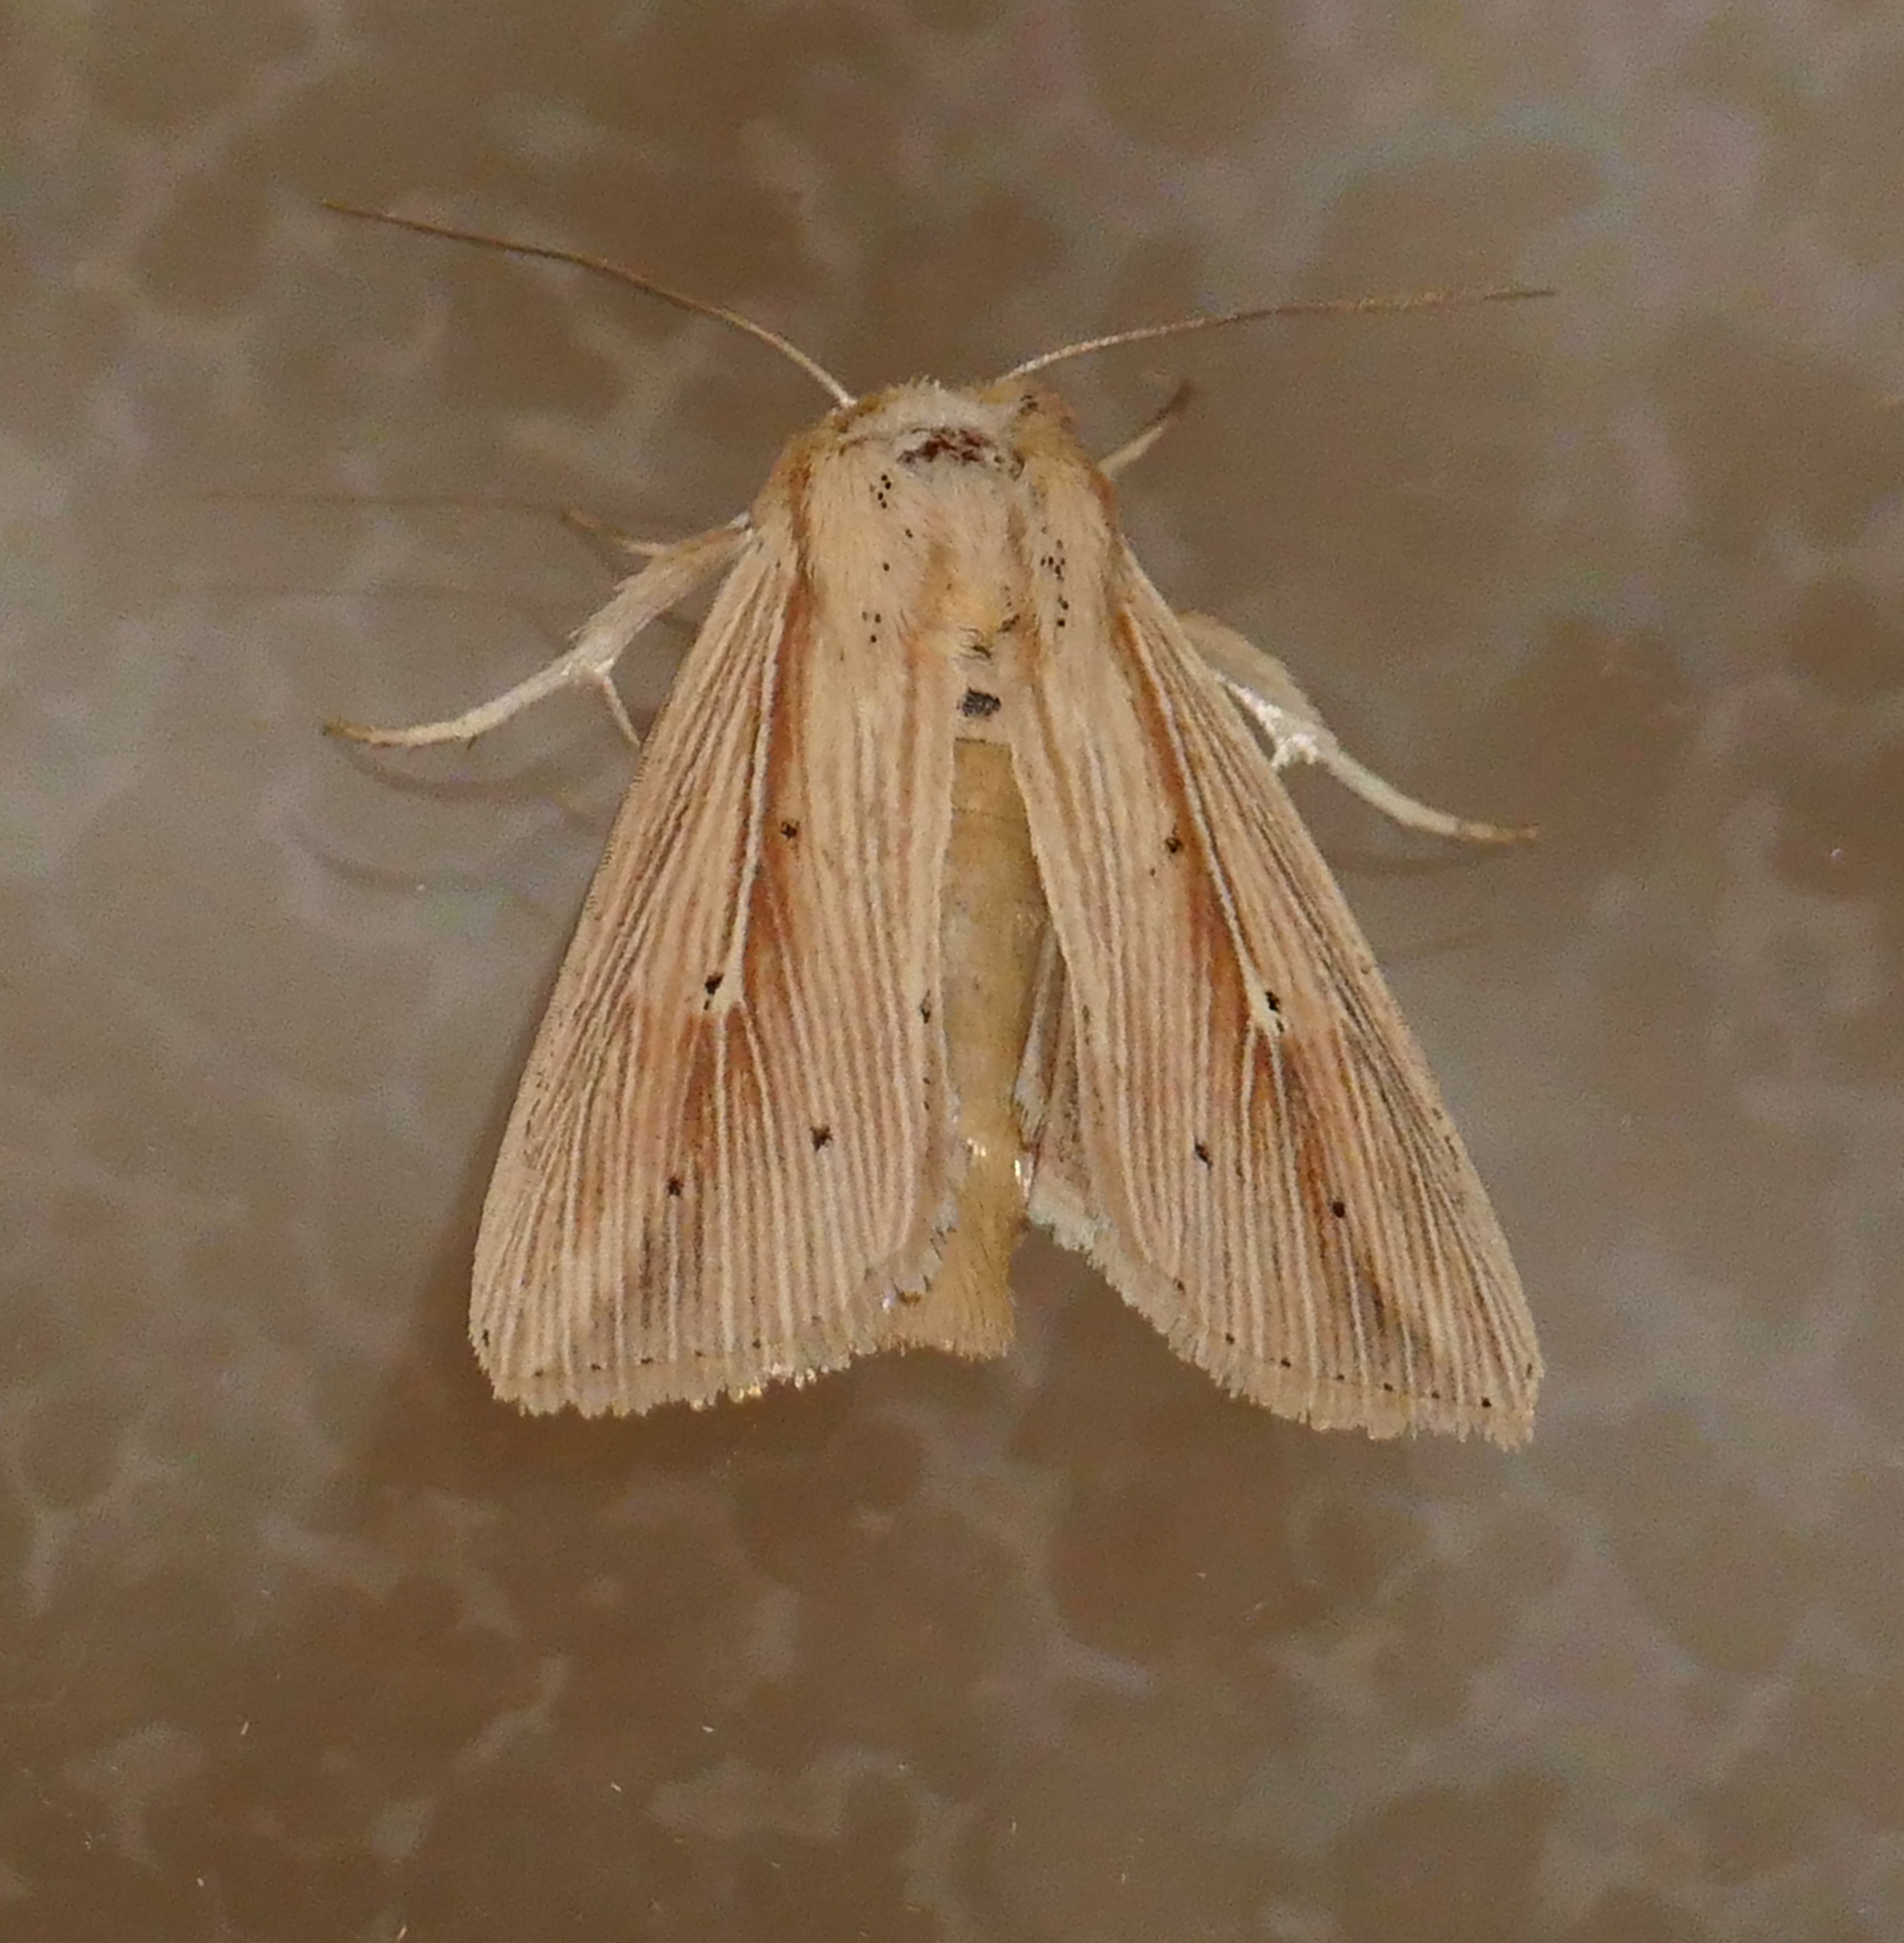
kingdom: Animalia
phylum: Arthropoda
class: Insecta
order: Lepidoptera
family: Noctuidae
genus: Leucania
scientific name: Leucania adjuta
